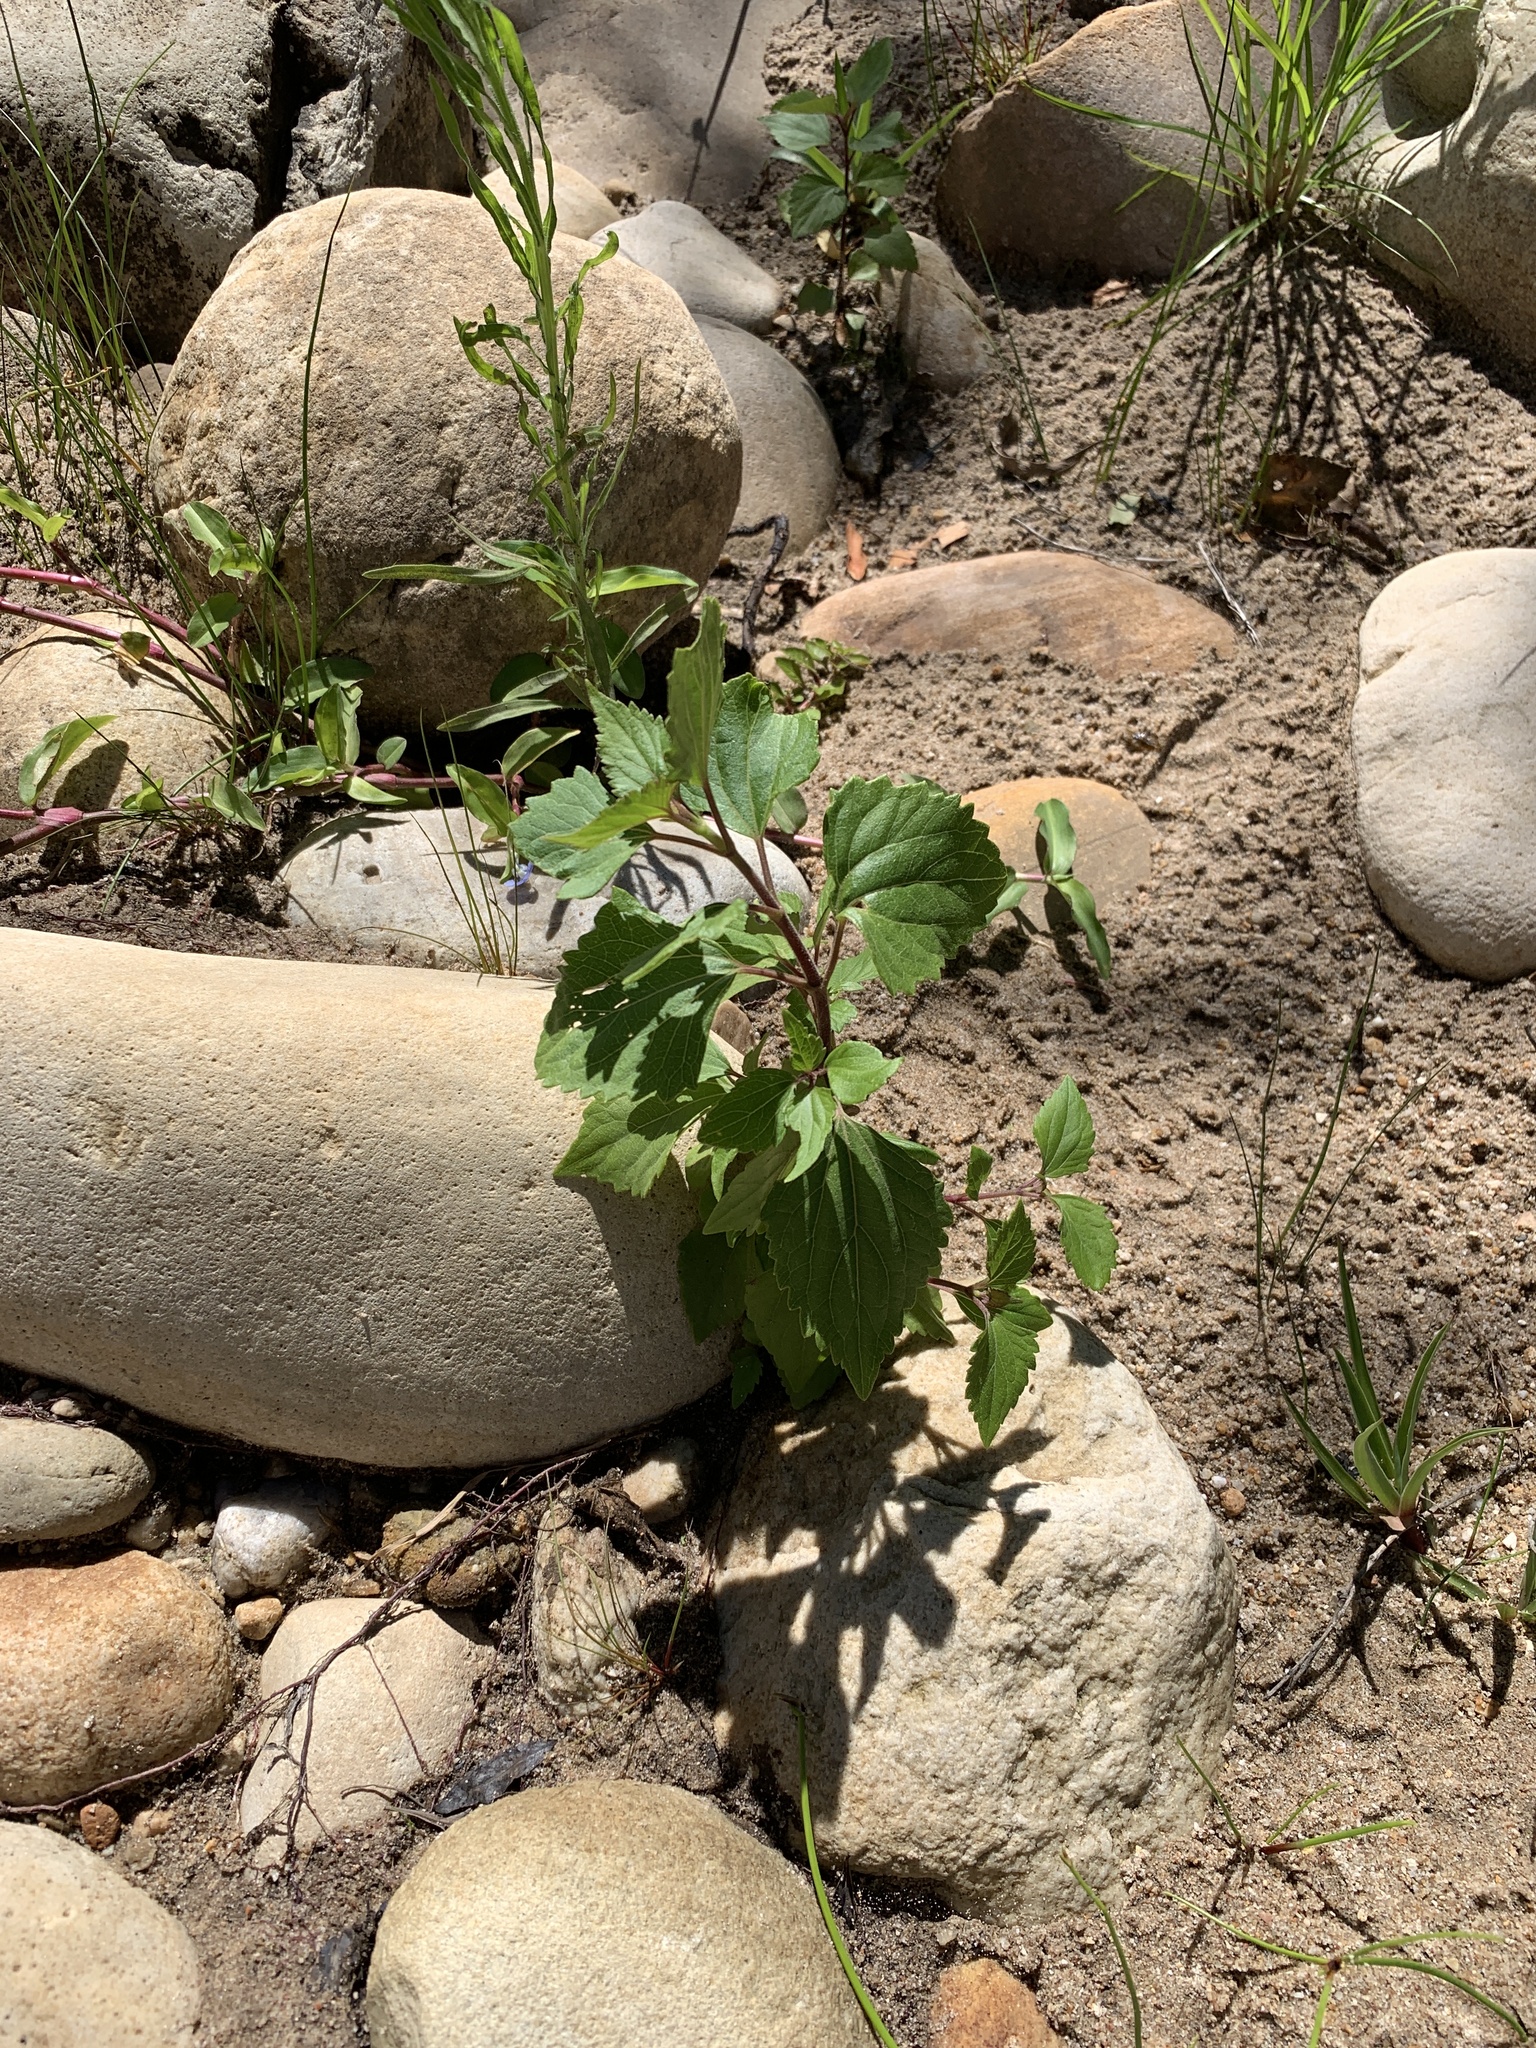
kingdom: Plantae
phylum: Tracheophyta
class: Magnoliopsida
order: Asterales
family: Asteraceae
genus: Ageratina
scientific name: Ageratina adenophora
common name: Sticky snakeroot
